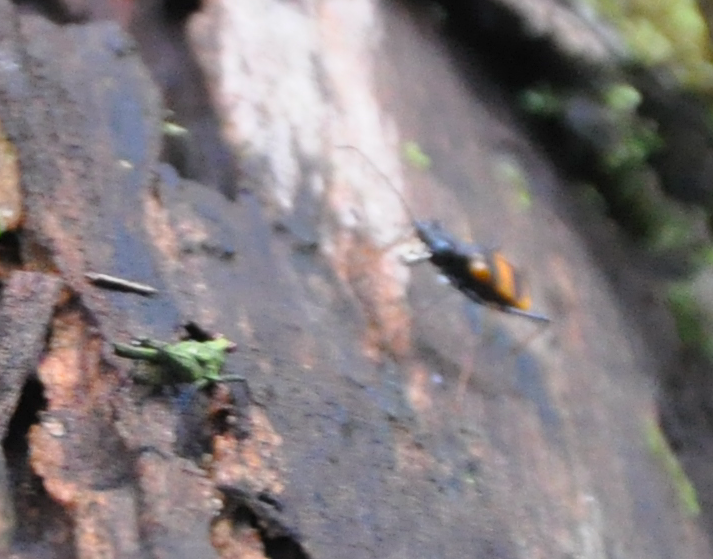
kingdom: Animalia
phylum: Arthropoda
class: Insecta
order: Orthoptera
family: Tetrigidae
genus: Oxytettix
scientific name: Oxytettix arius
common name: Yellow-dot black pygmy grasshopper
